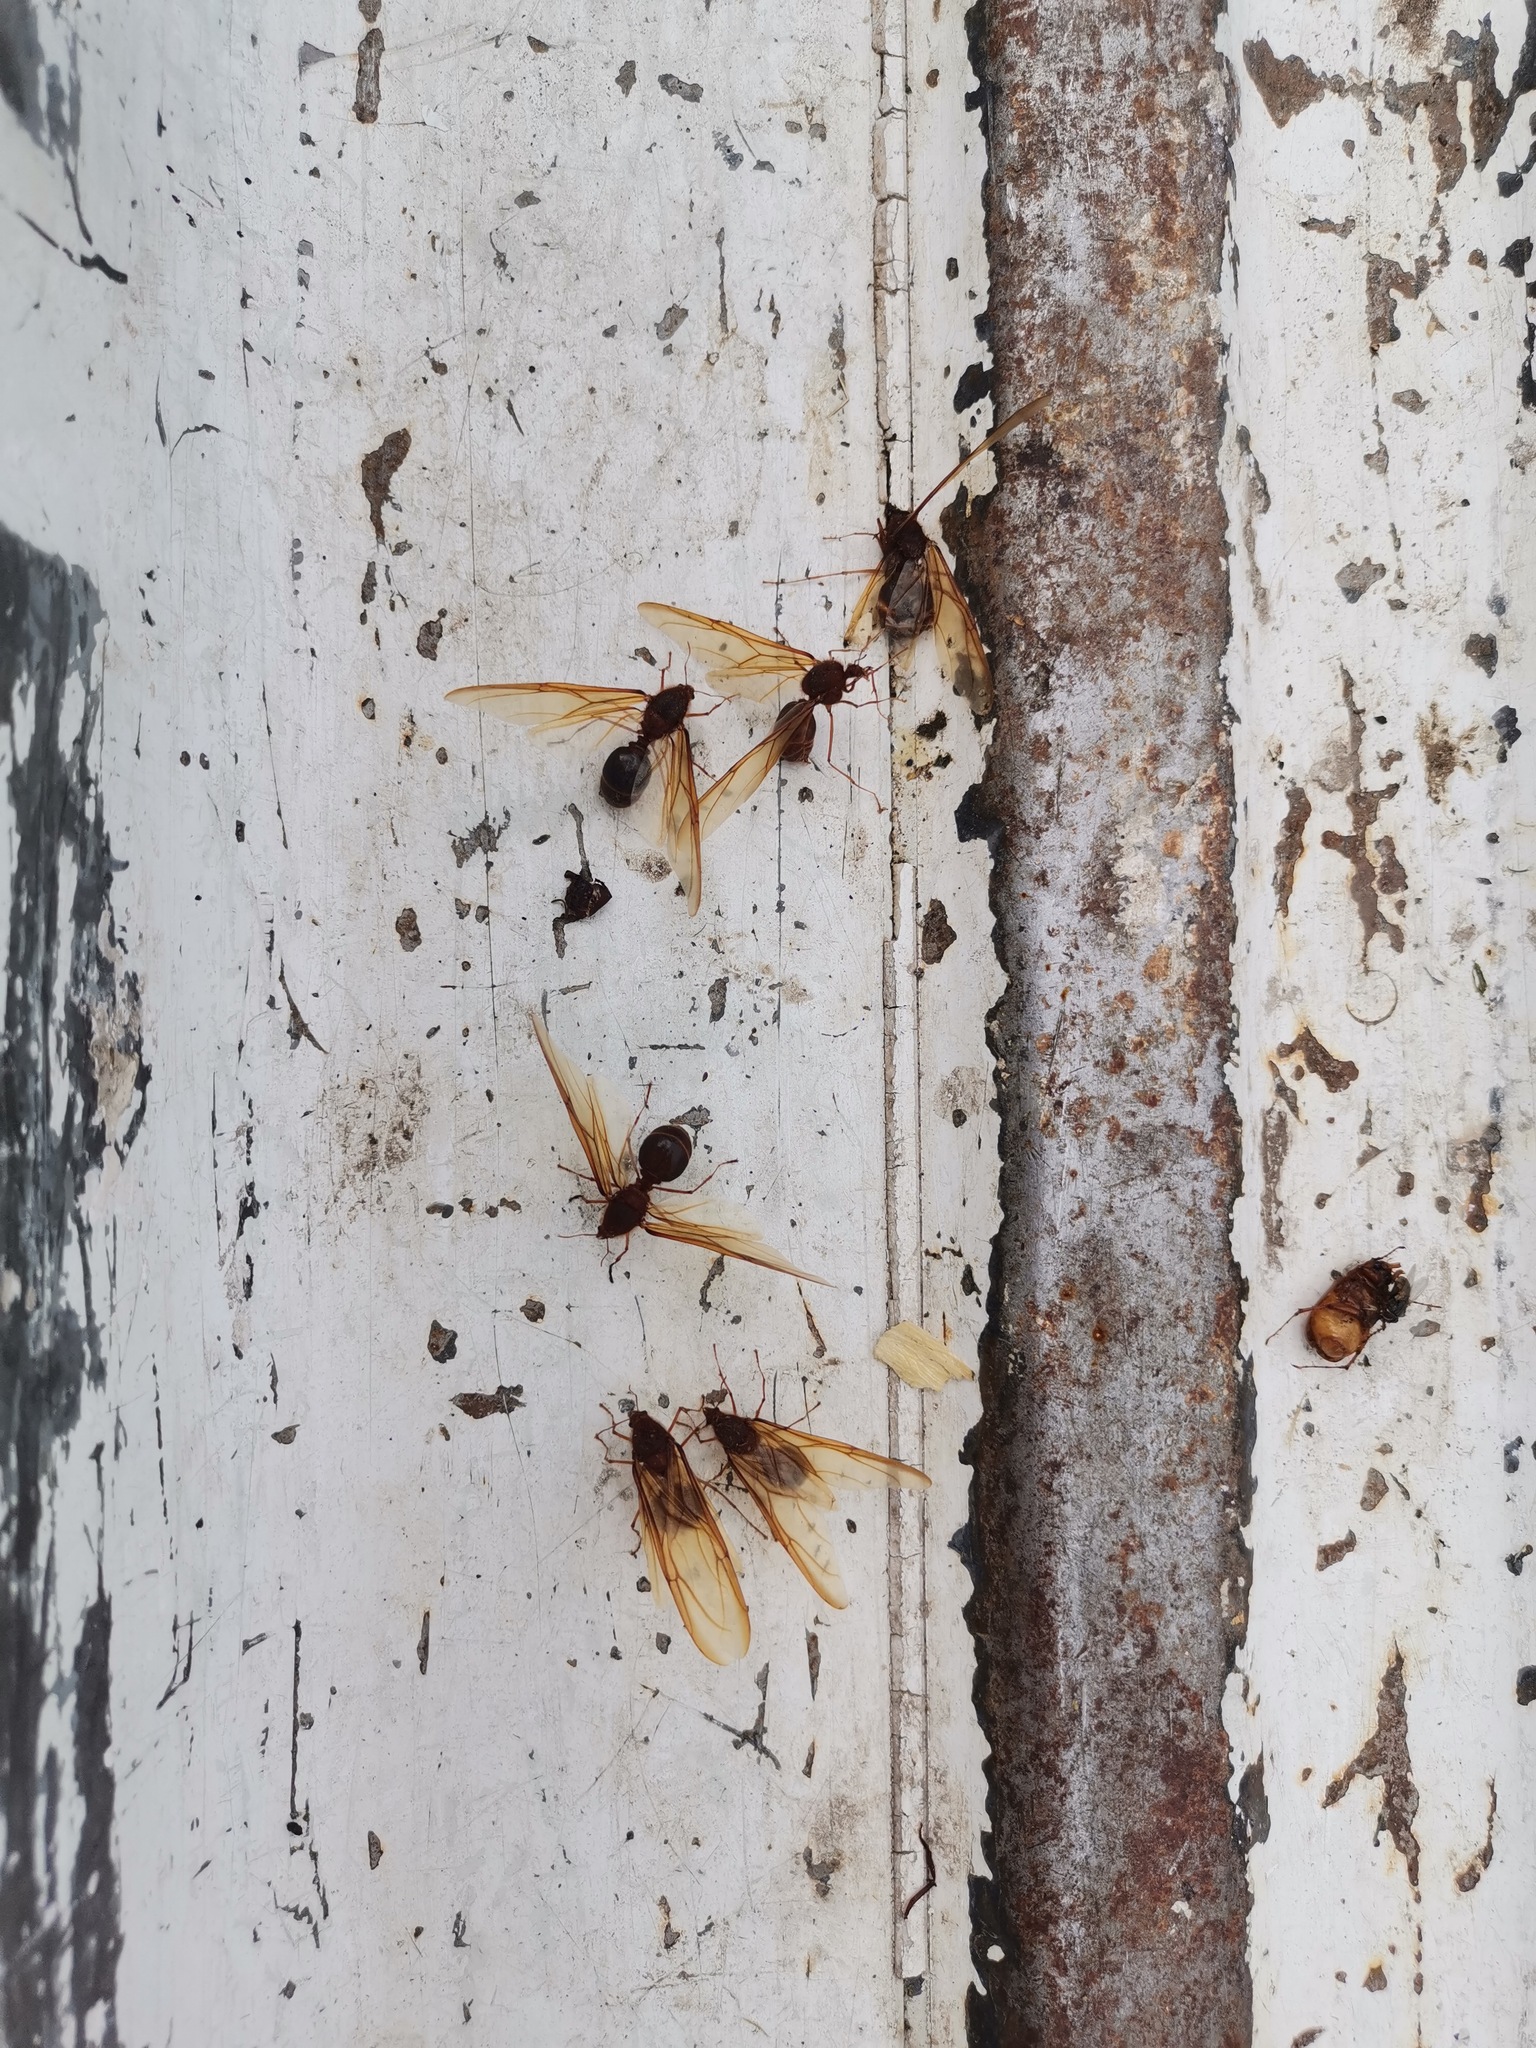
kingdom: Animalia
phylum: Arthropoda
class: Insecta
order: Hymenoptera
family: Formicidae
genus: Atta
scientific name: Atta mexicana
